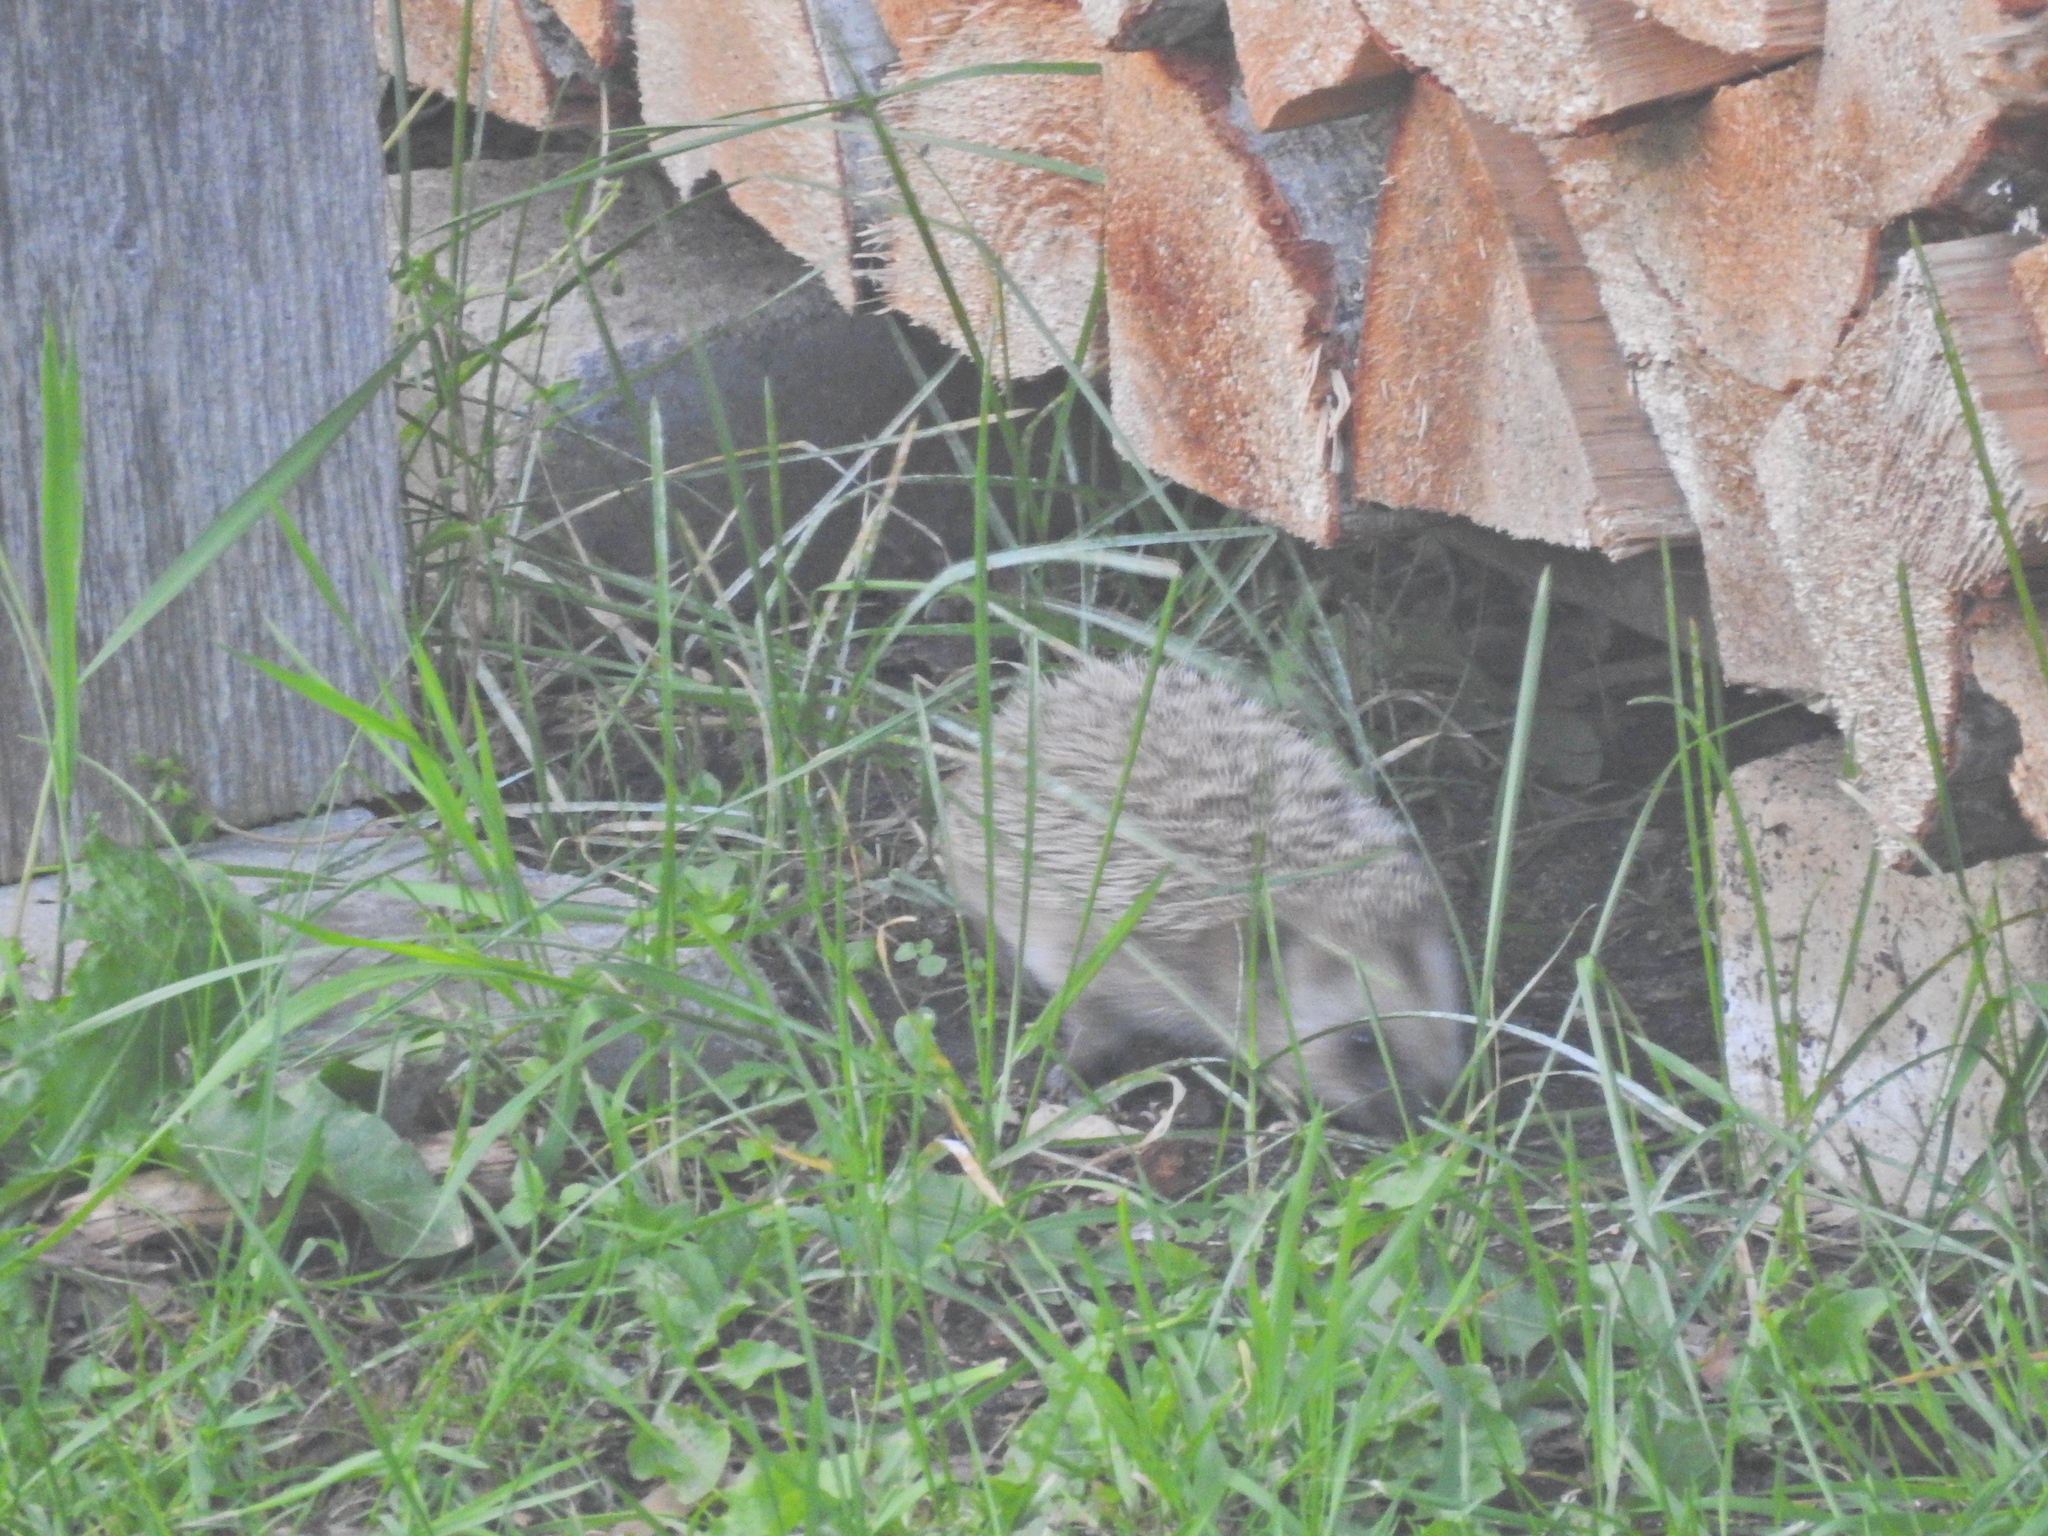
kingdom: Animalia
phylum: Chordata
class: Mammalia
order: Erinaceomorpha
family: Erinaceidae
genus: Erinaceus
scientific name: Erinaceus europaeus
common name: West european hedgehog
